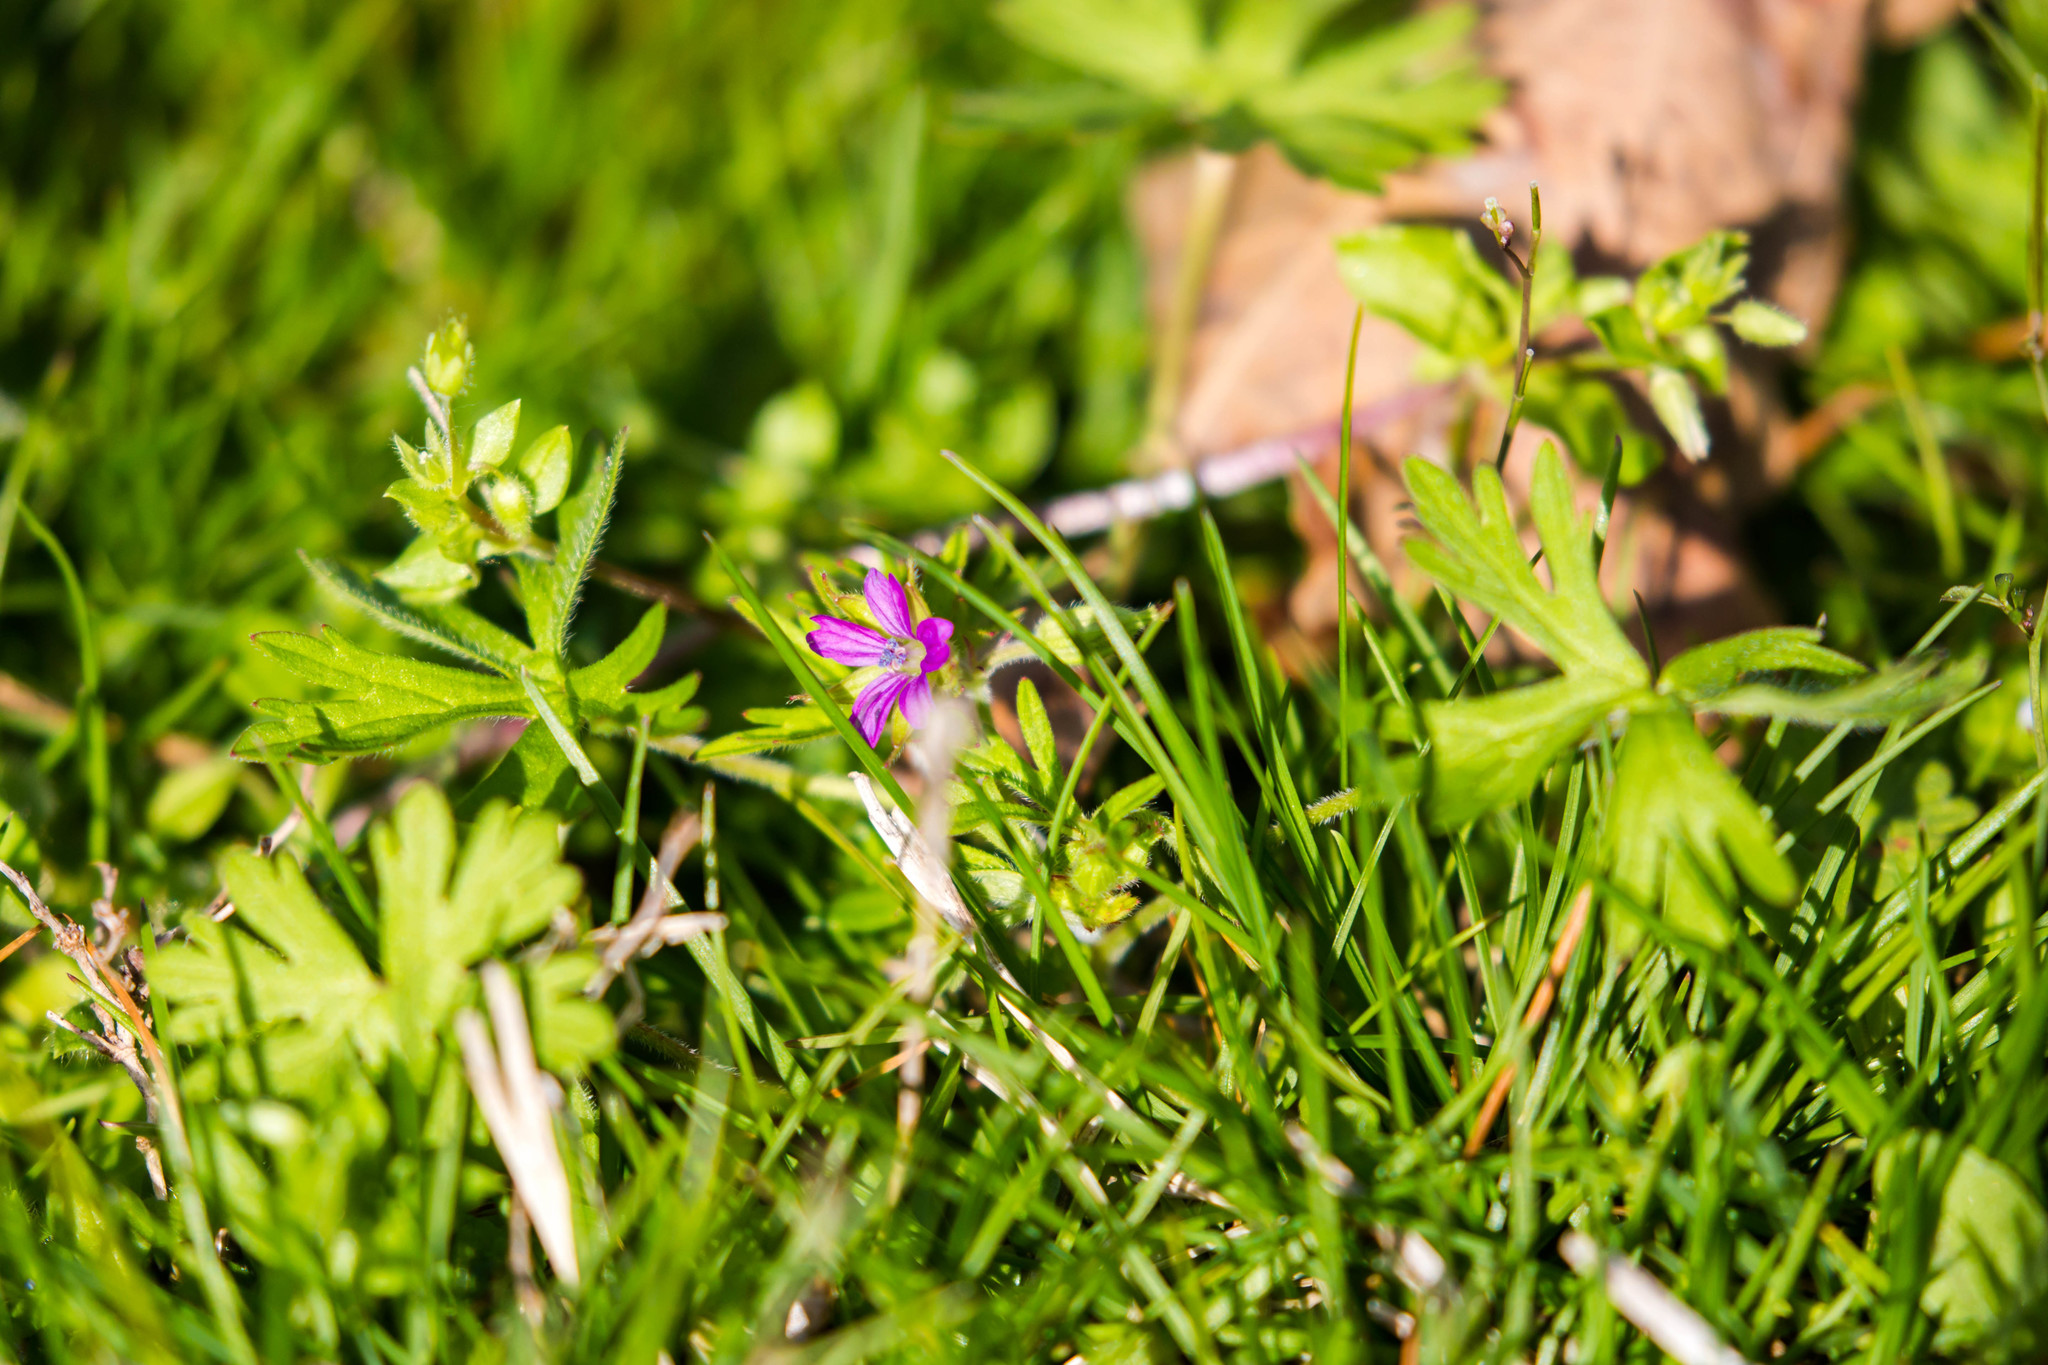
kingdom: Plantae
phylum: Tracheophyta
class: Magnoliopsida
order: Geraniales
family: Geraniaceae
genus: Geranium
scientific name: Geranium dissectum
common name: Cut-leaved crane's-bill
